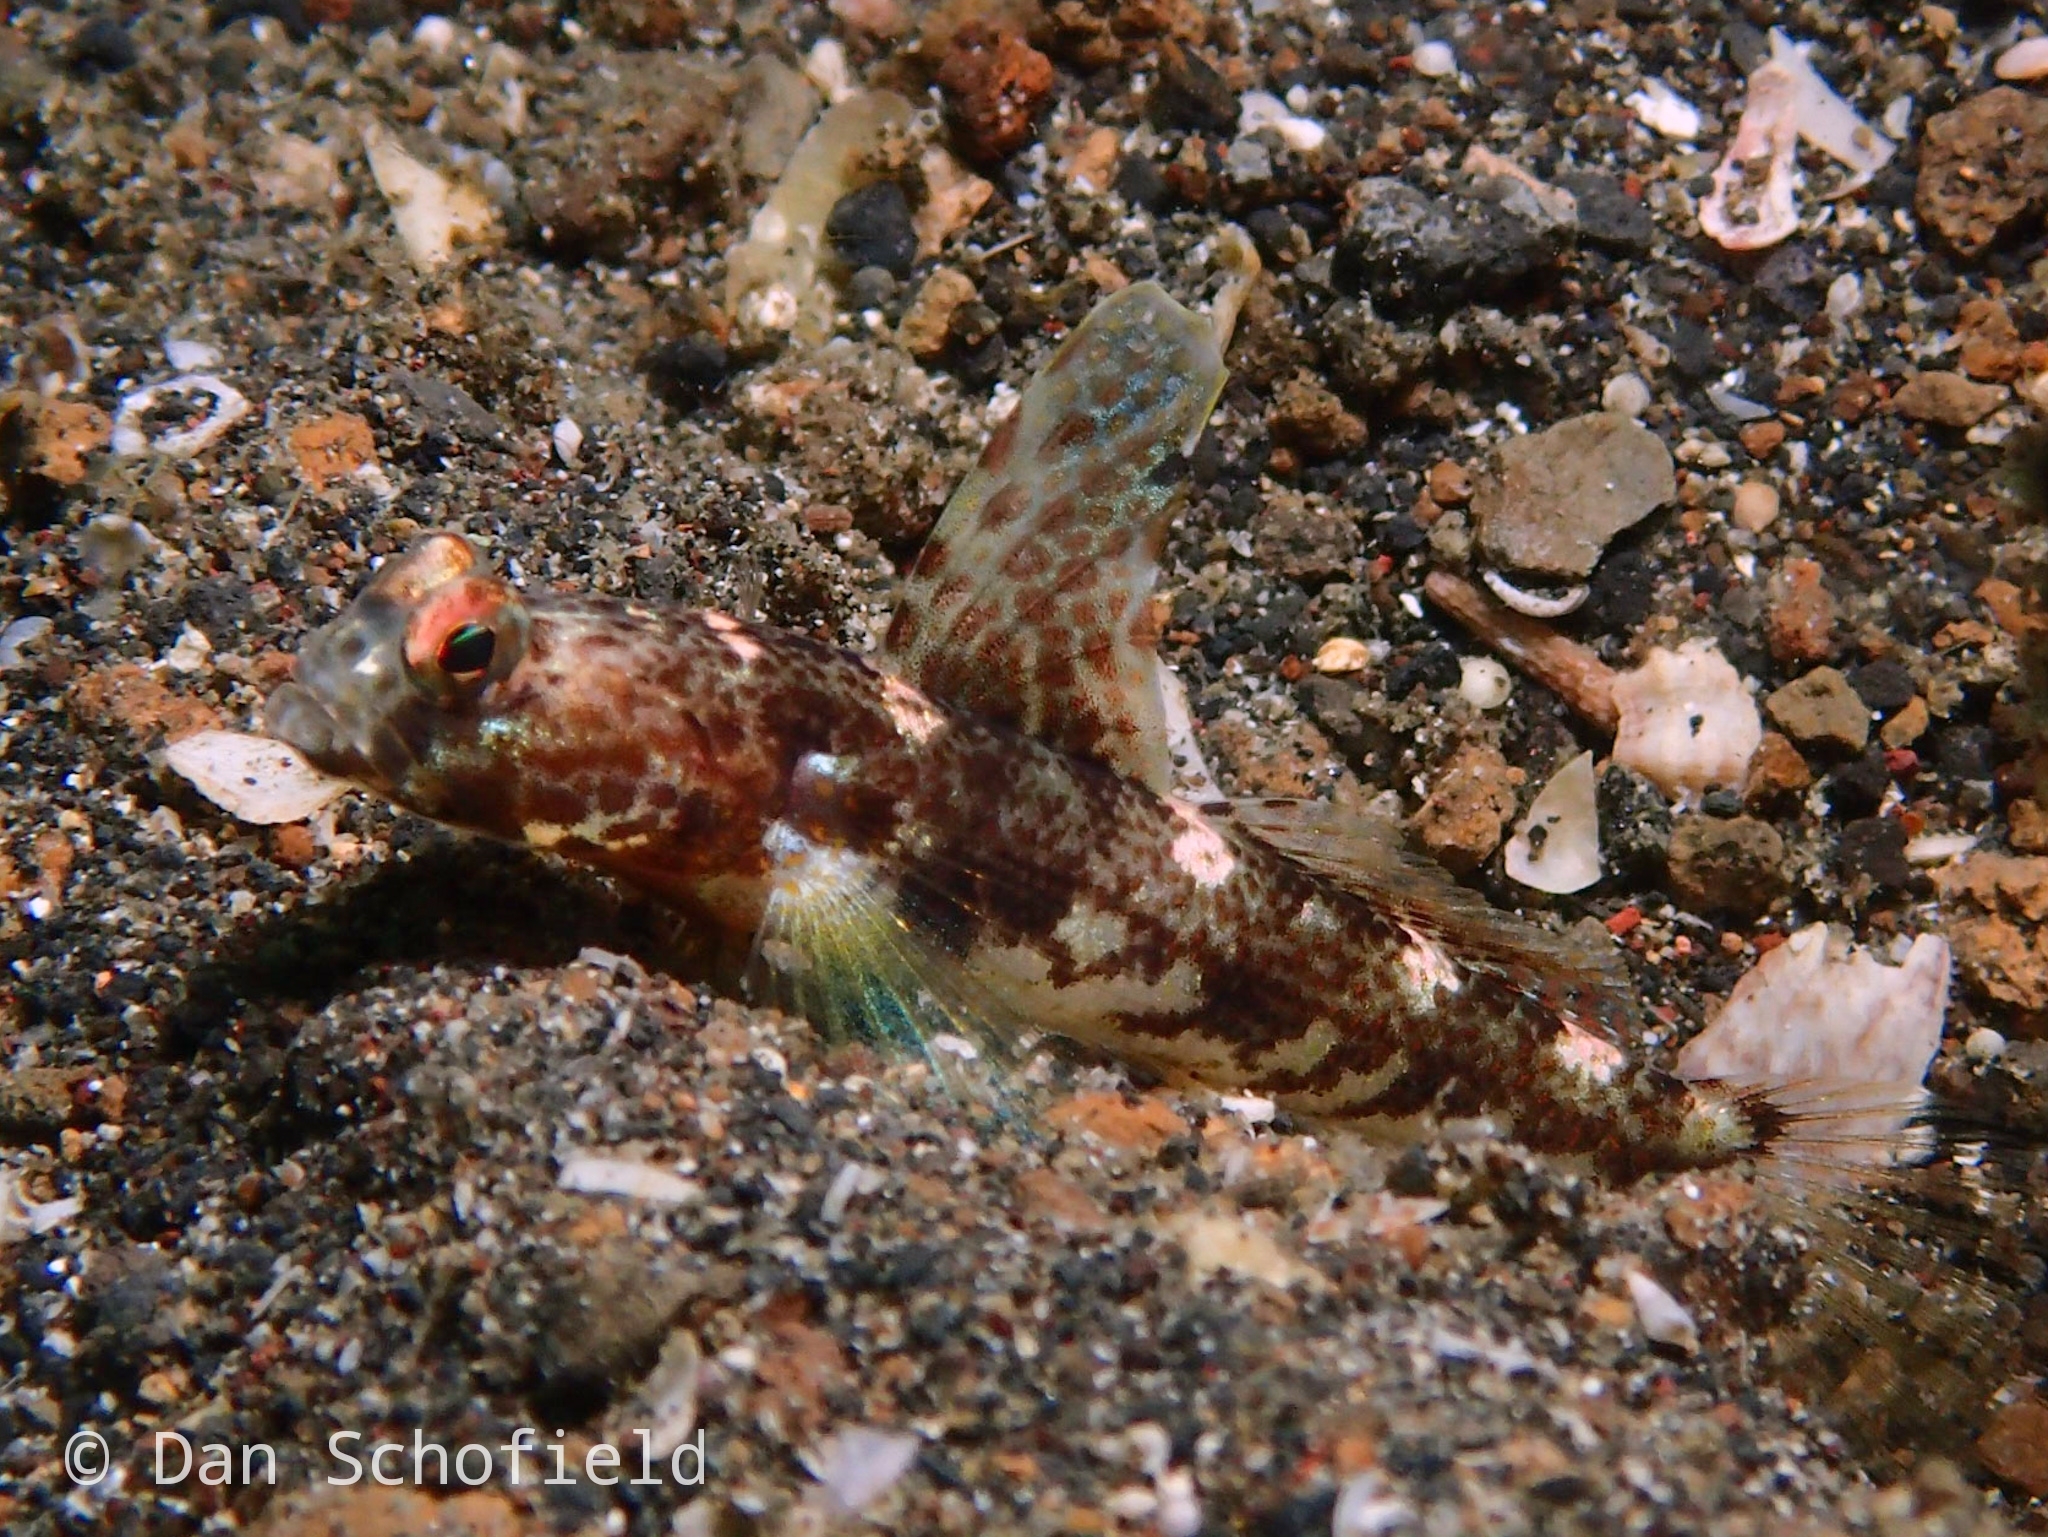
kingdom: Animalia
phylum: Chordata
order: Perciformes
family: Gobiidae
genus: Tomiyamichthys
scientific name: Tomiyamichthys latruncularius
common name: Fan shrimp-goby
